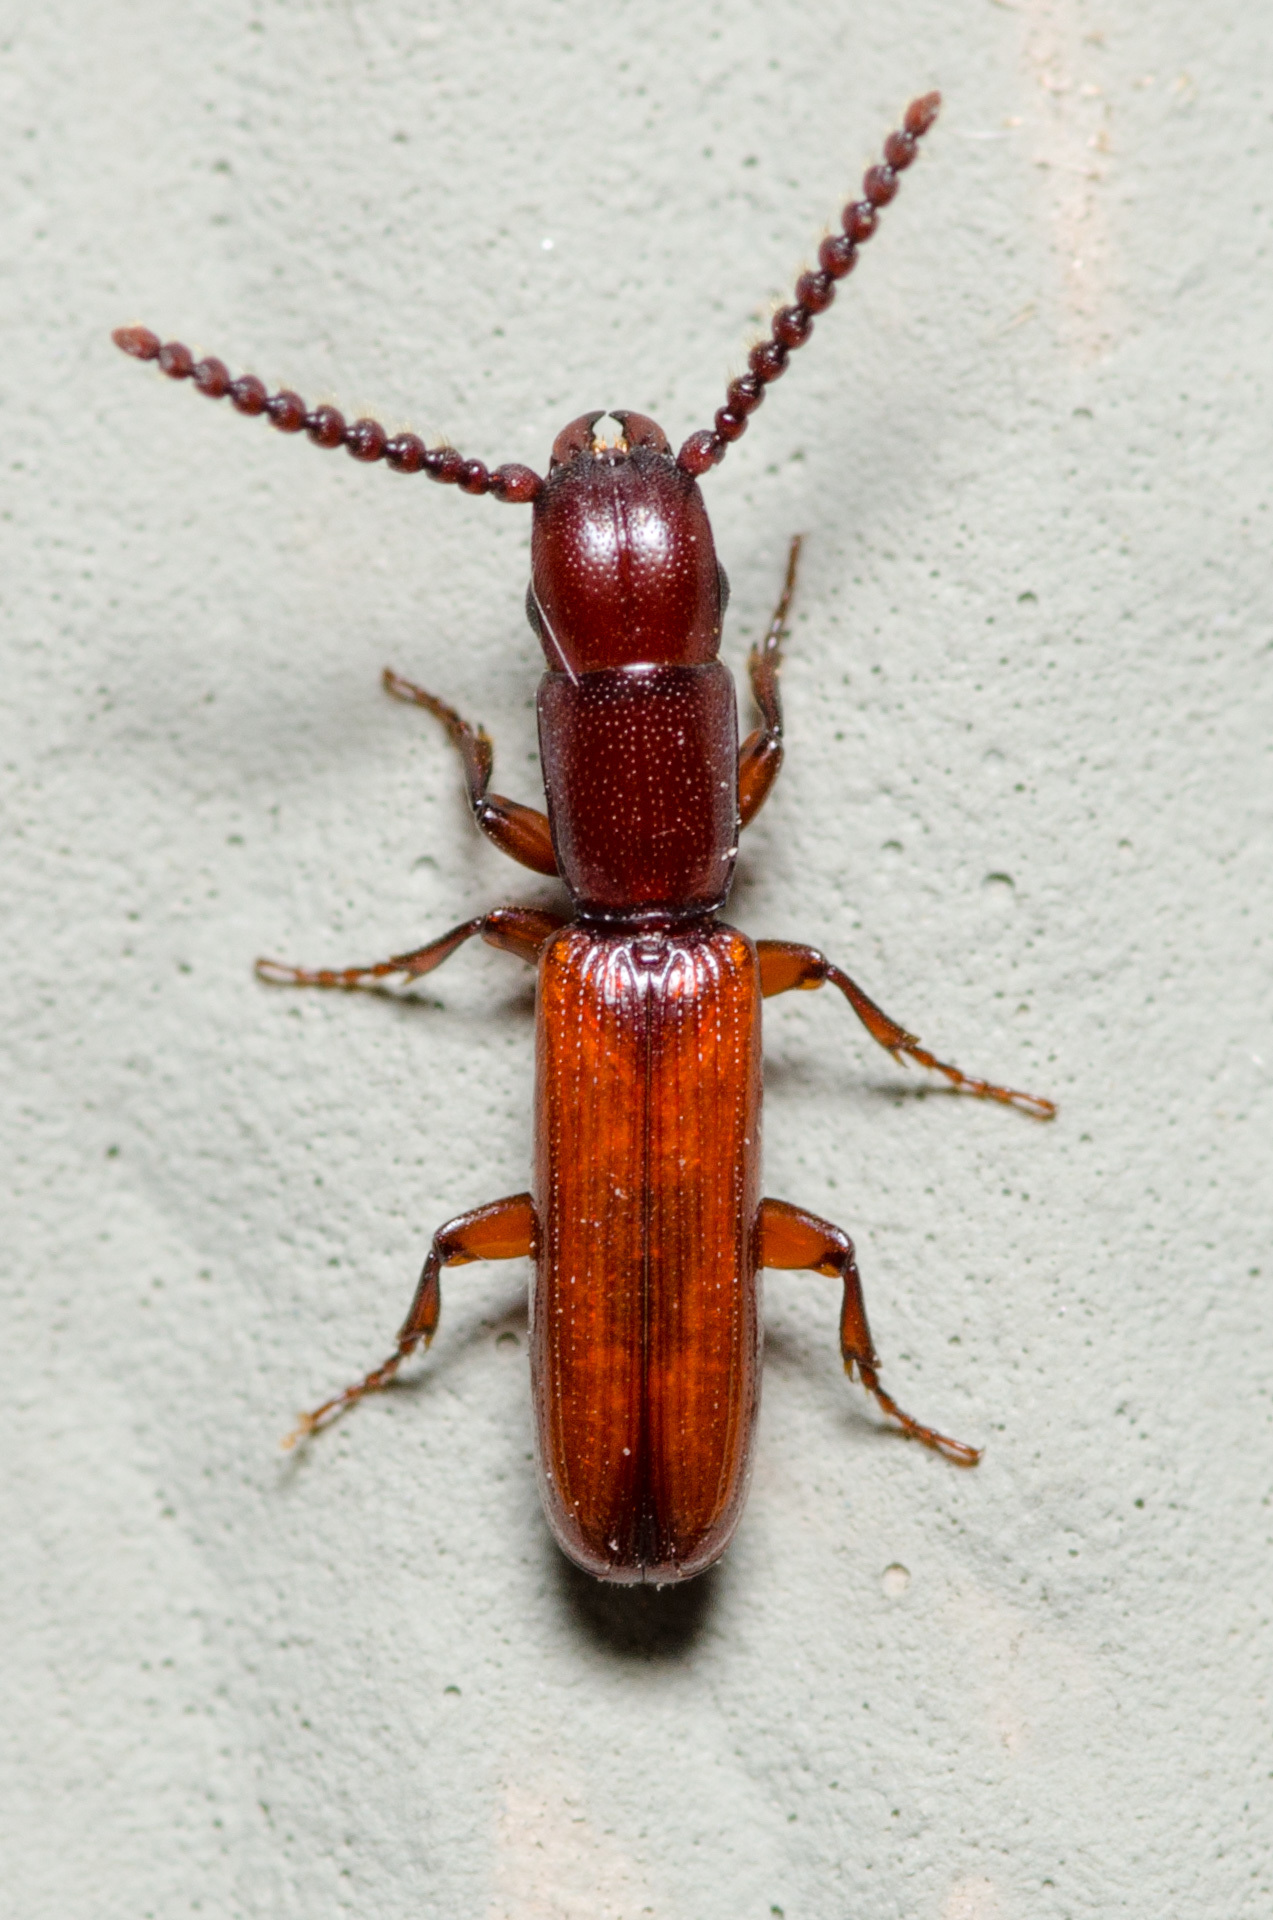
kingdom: Animalia
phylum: Arthropoda
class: Insecta
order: Coleoptera
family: Passandridae
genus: Taphroscelidia
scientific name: Taphroscelidia linearis
